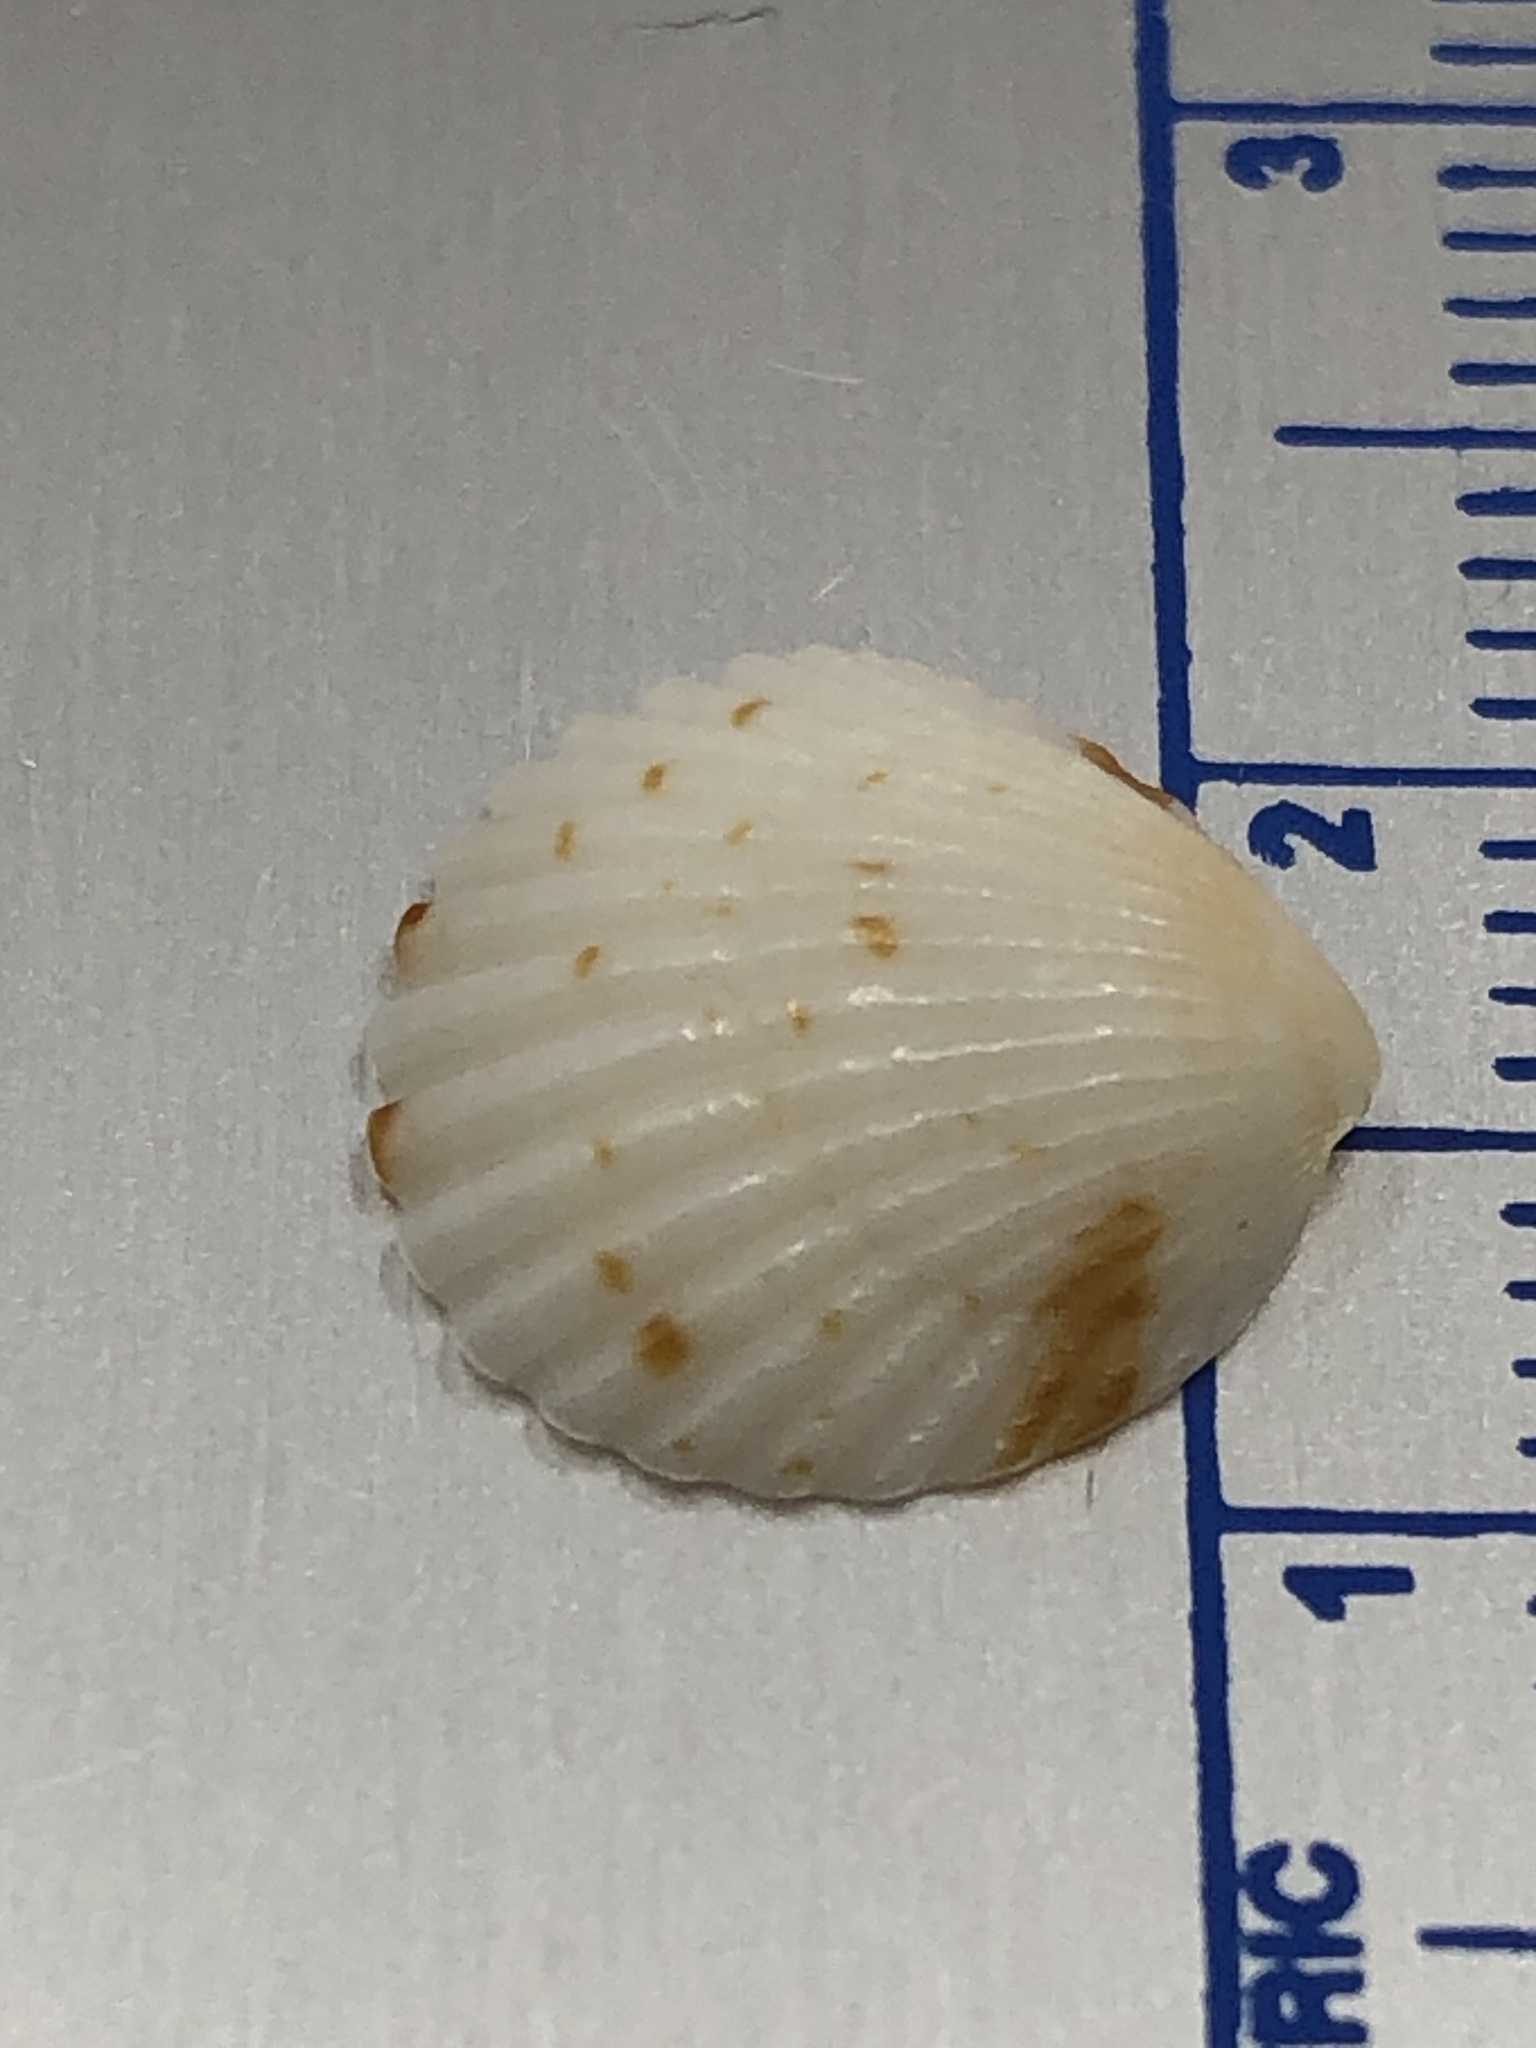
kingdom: Animalia
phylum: Mollusca
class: Bivalvia
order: Arcida
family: Glycymerididae
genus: Tucetona
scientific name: Tucetona pectinata
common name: Comb bittersweet
